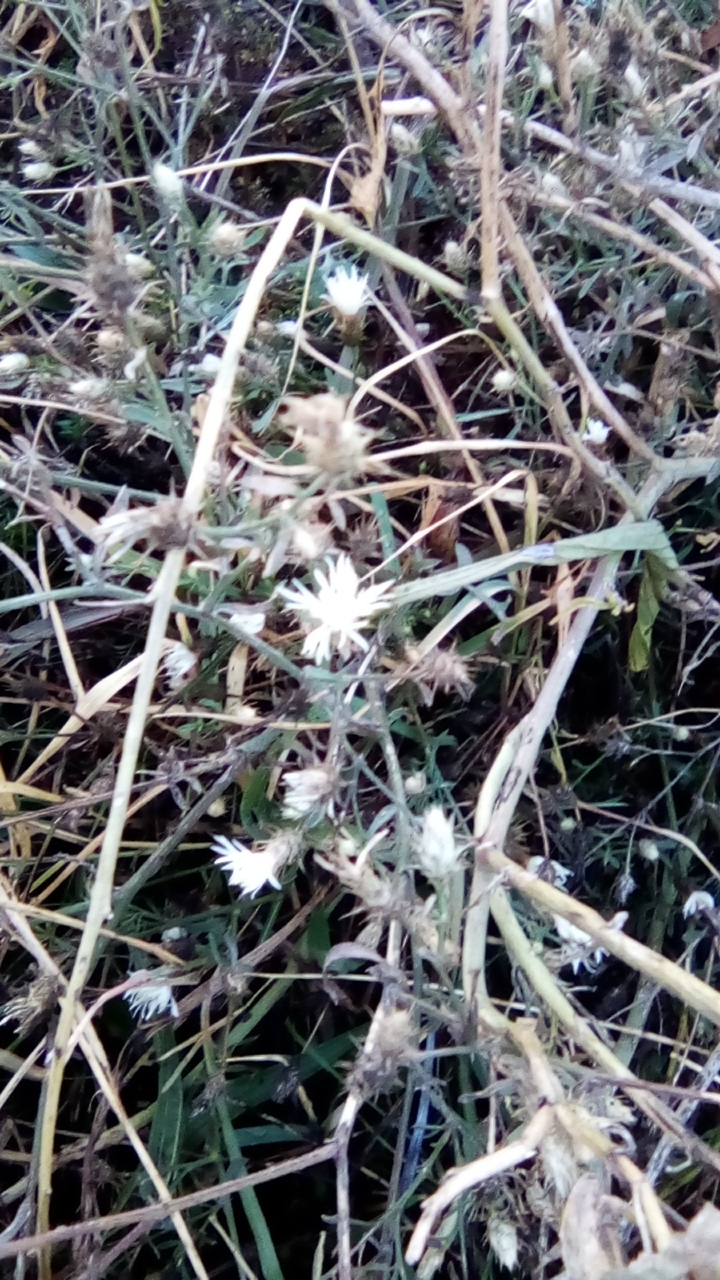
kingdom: Plantae
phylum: Tracheophyta
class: Magnoliopsida
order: Asterales
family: Asteraceae
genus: Centaurea
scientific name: Centaurea diffusa
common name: Diffuse knapweed
